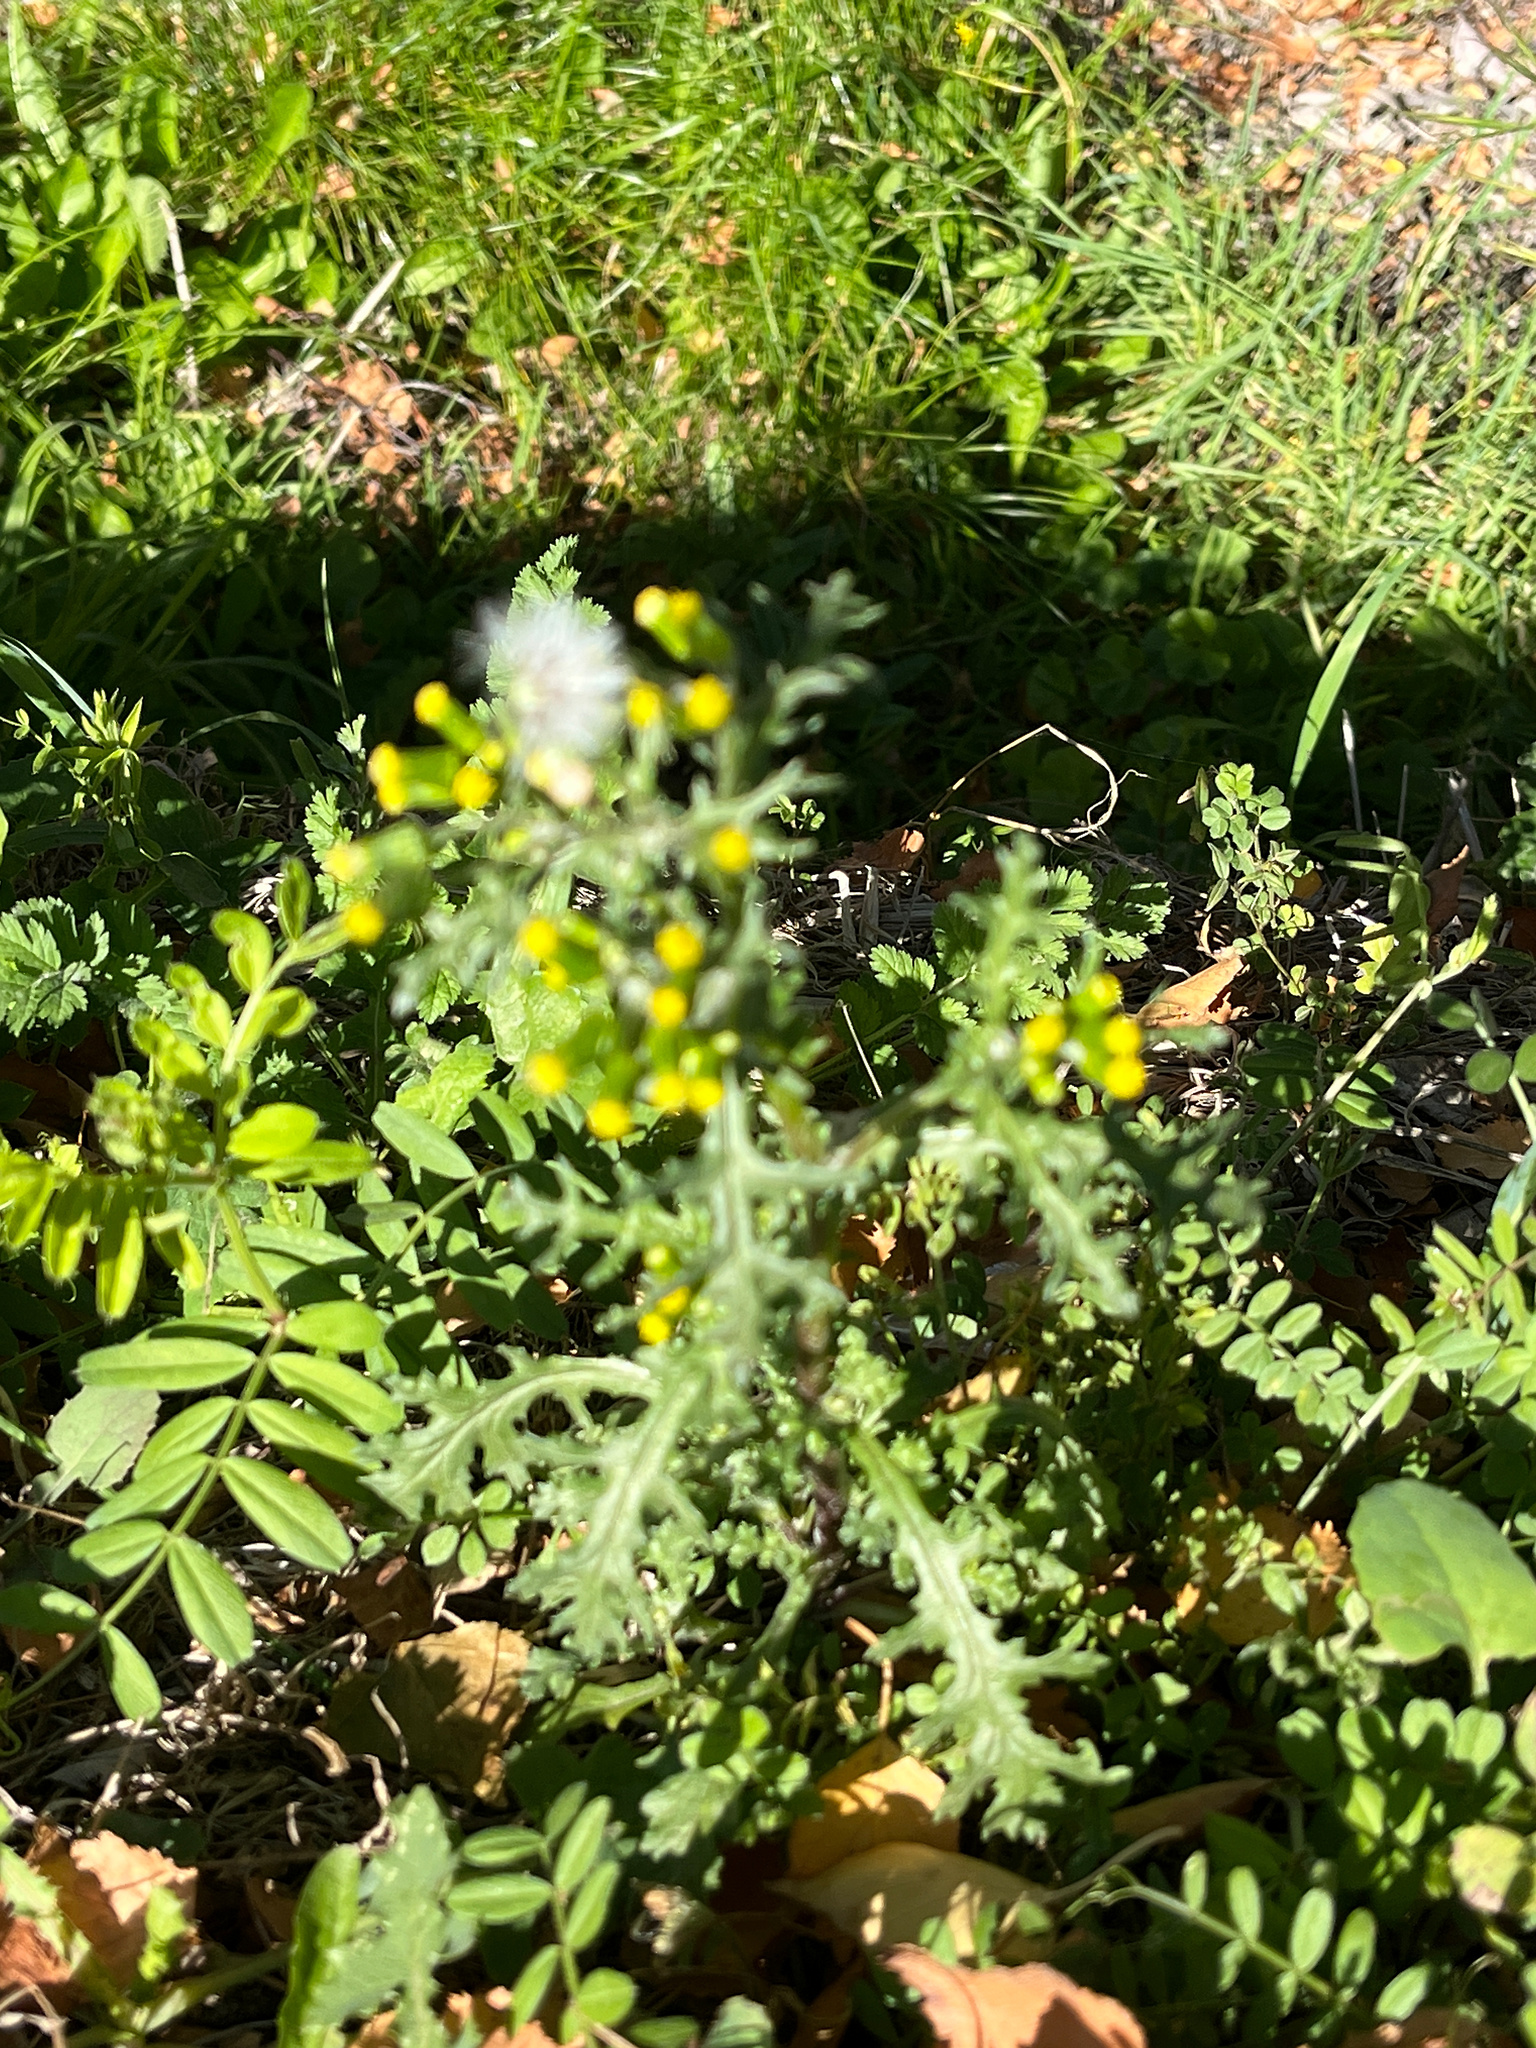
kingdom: Plantae
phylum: Tracheophyta
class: Magnoliopsida
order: Asterales
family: Asteraceae
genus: Senecio
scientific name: Senecio vulgaris
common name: Old-man-in-the-spring
